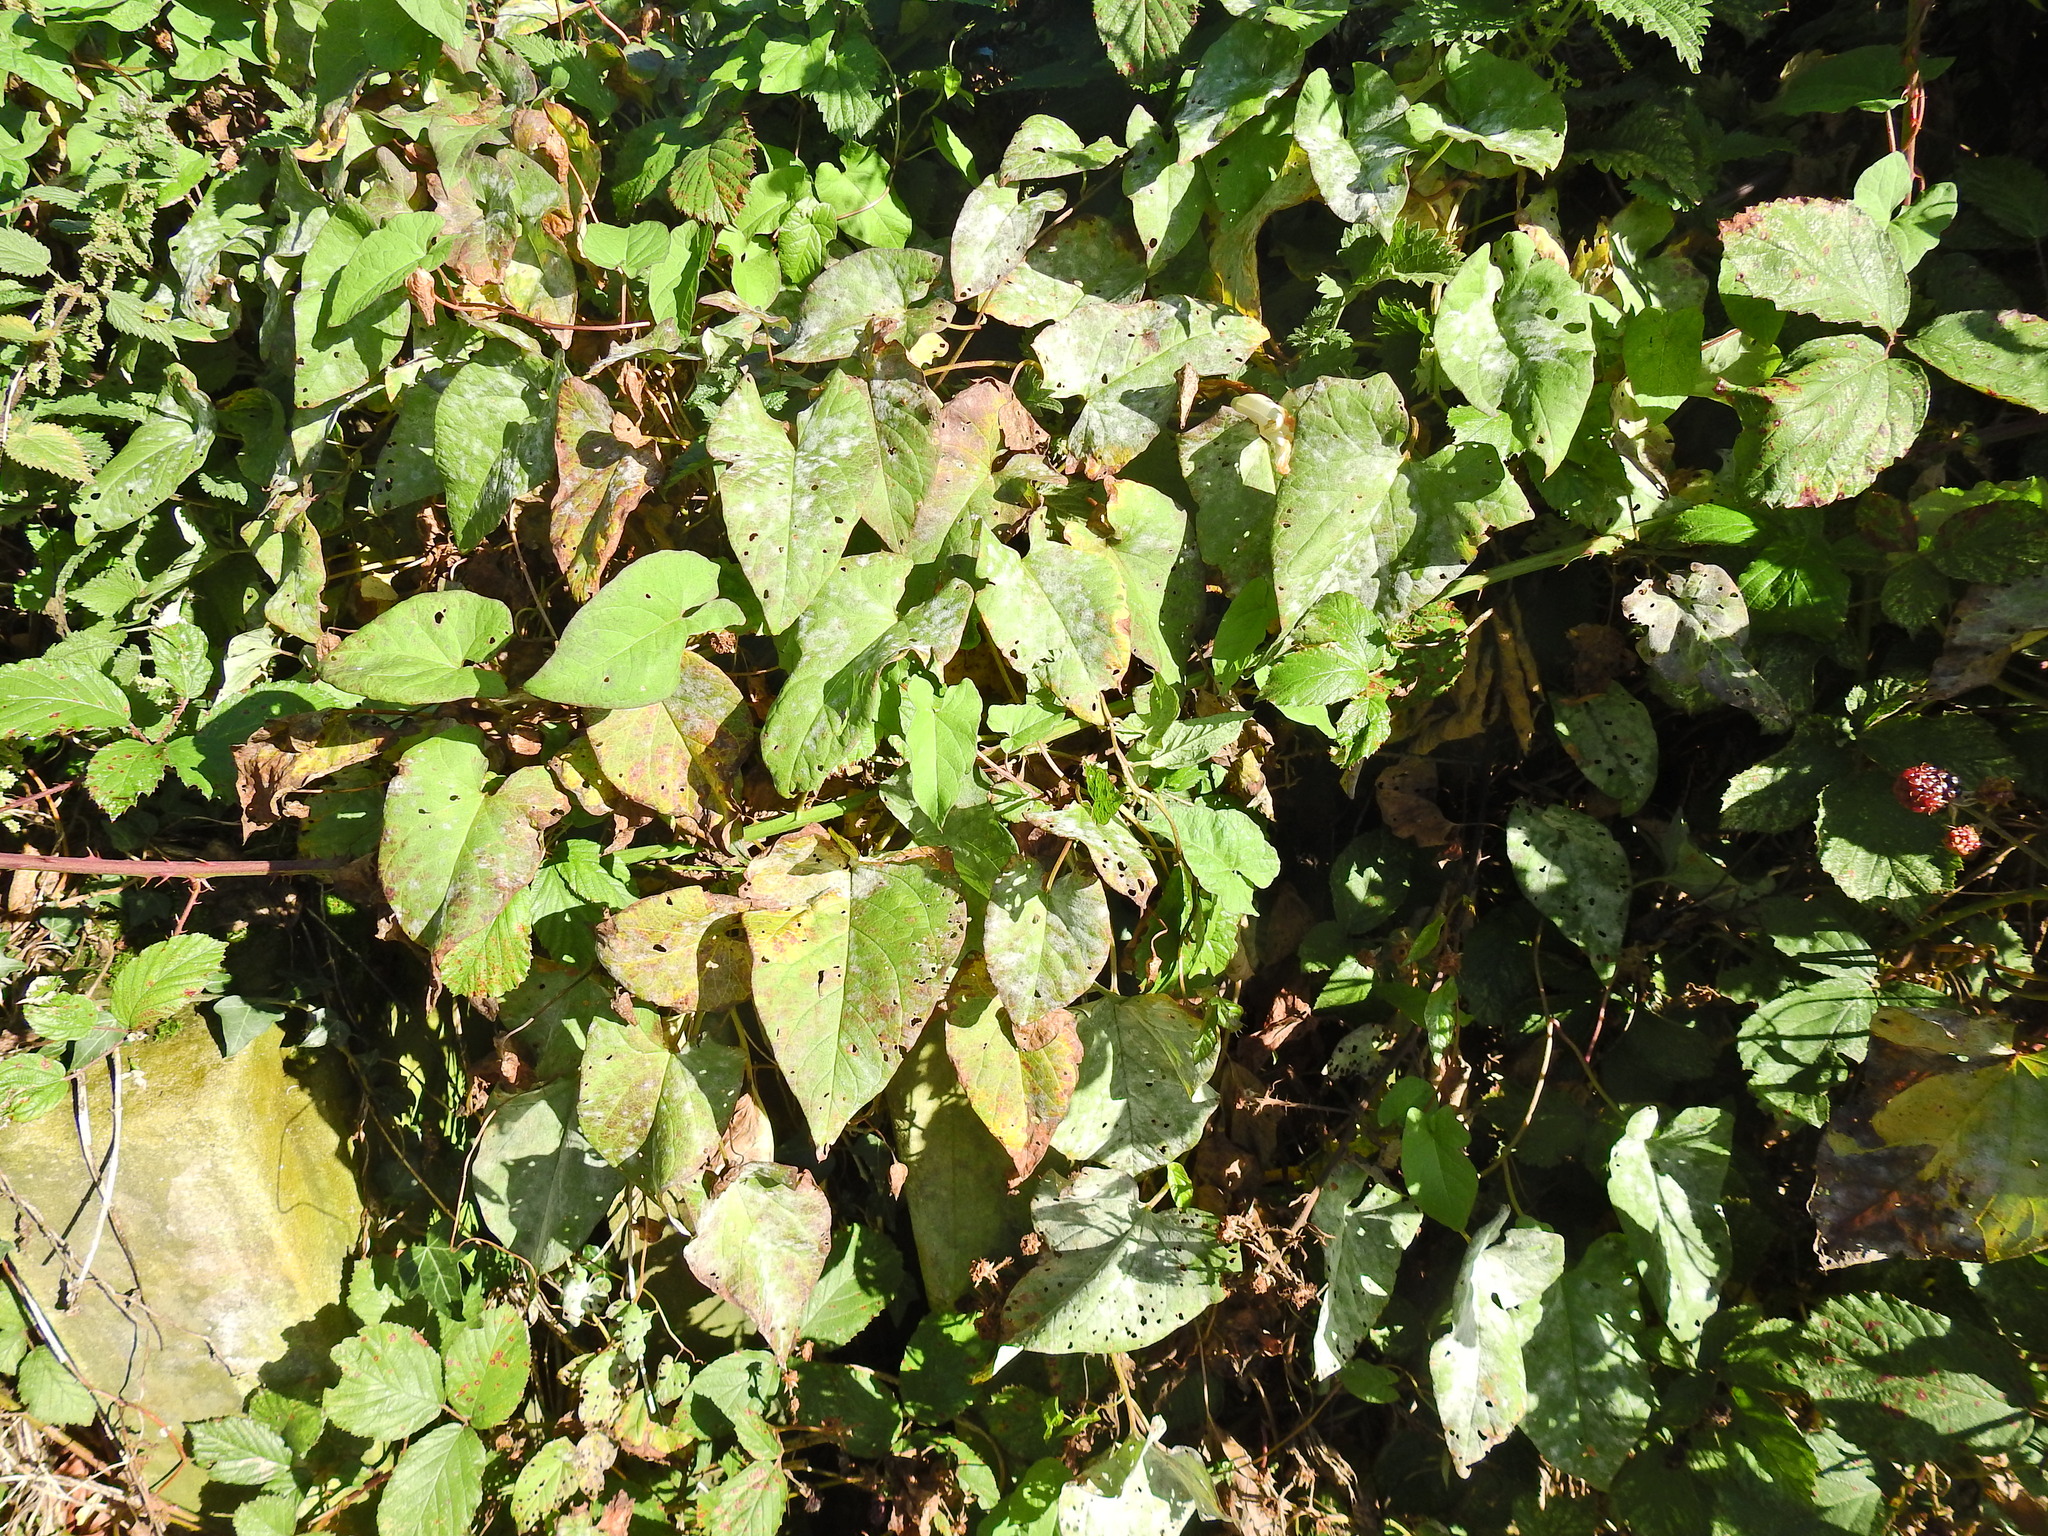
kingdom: Plantae
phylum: Tracheophyta
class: Magnoliopsida
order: Solanales
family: Convolvulaceae
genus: Calystegia
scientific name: Calystegia
